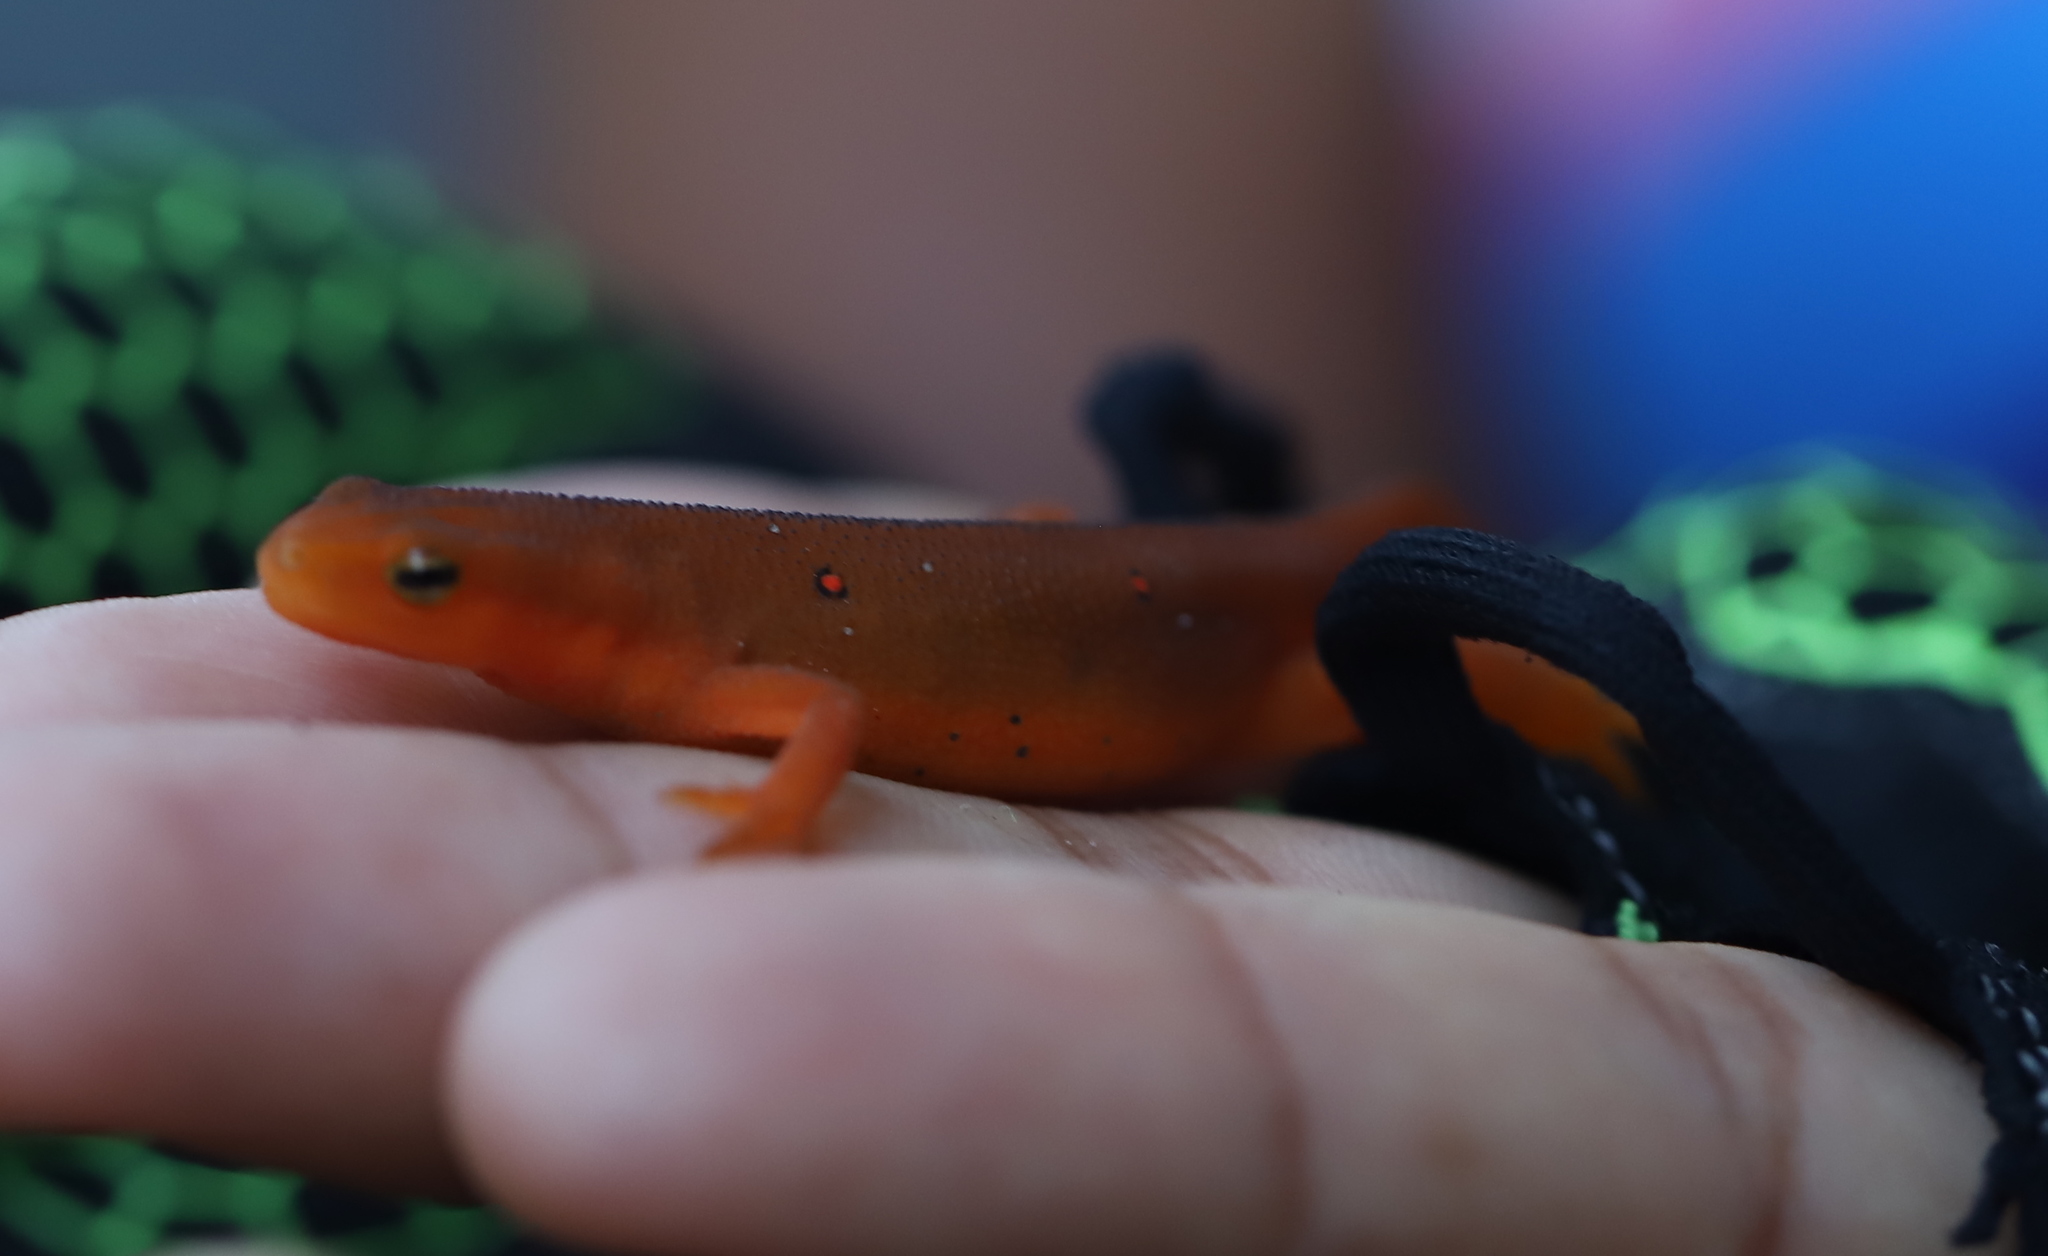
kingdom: Animalia
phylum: Chordata
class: Amphibia
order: Caudata
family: Salamandridae
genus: Notophthalmus
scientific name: Notophthalmus viridescens
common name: Eastern newt
